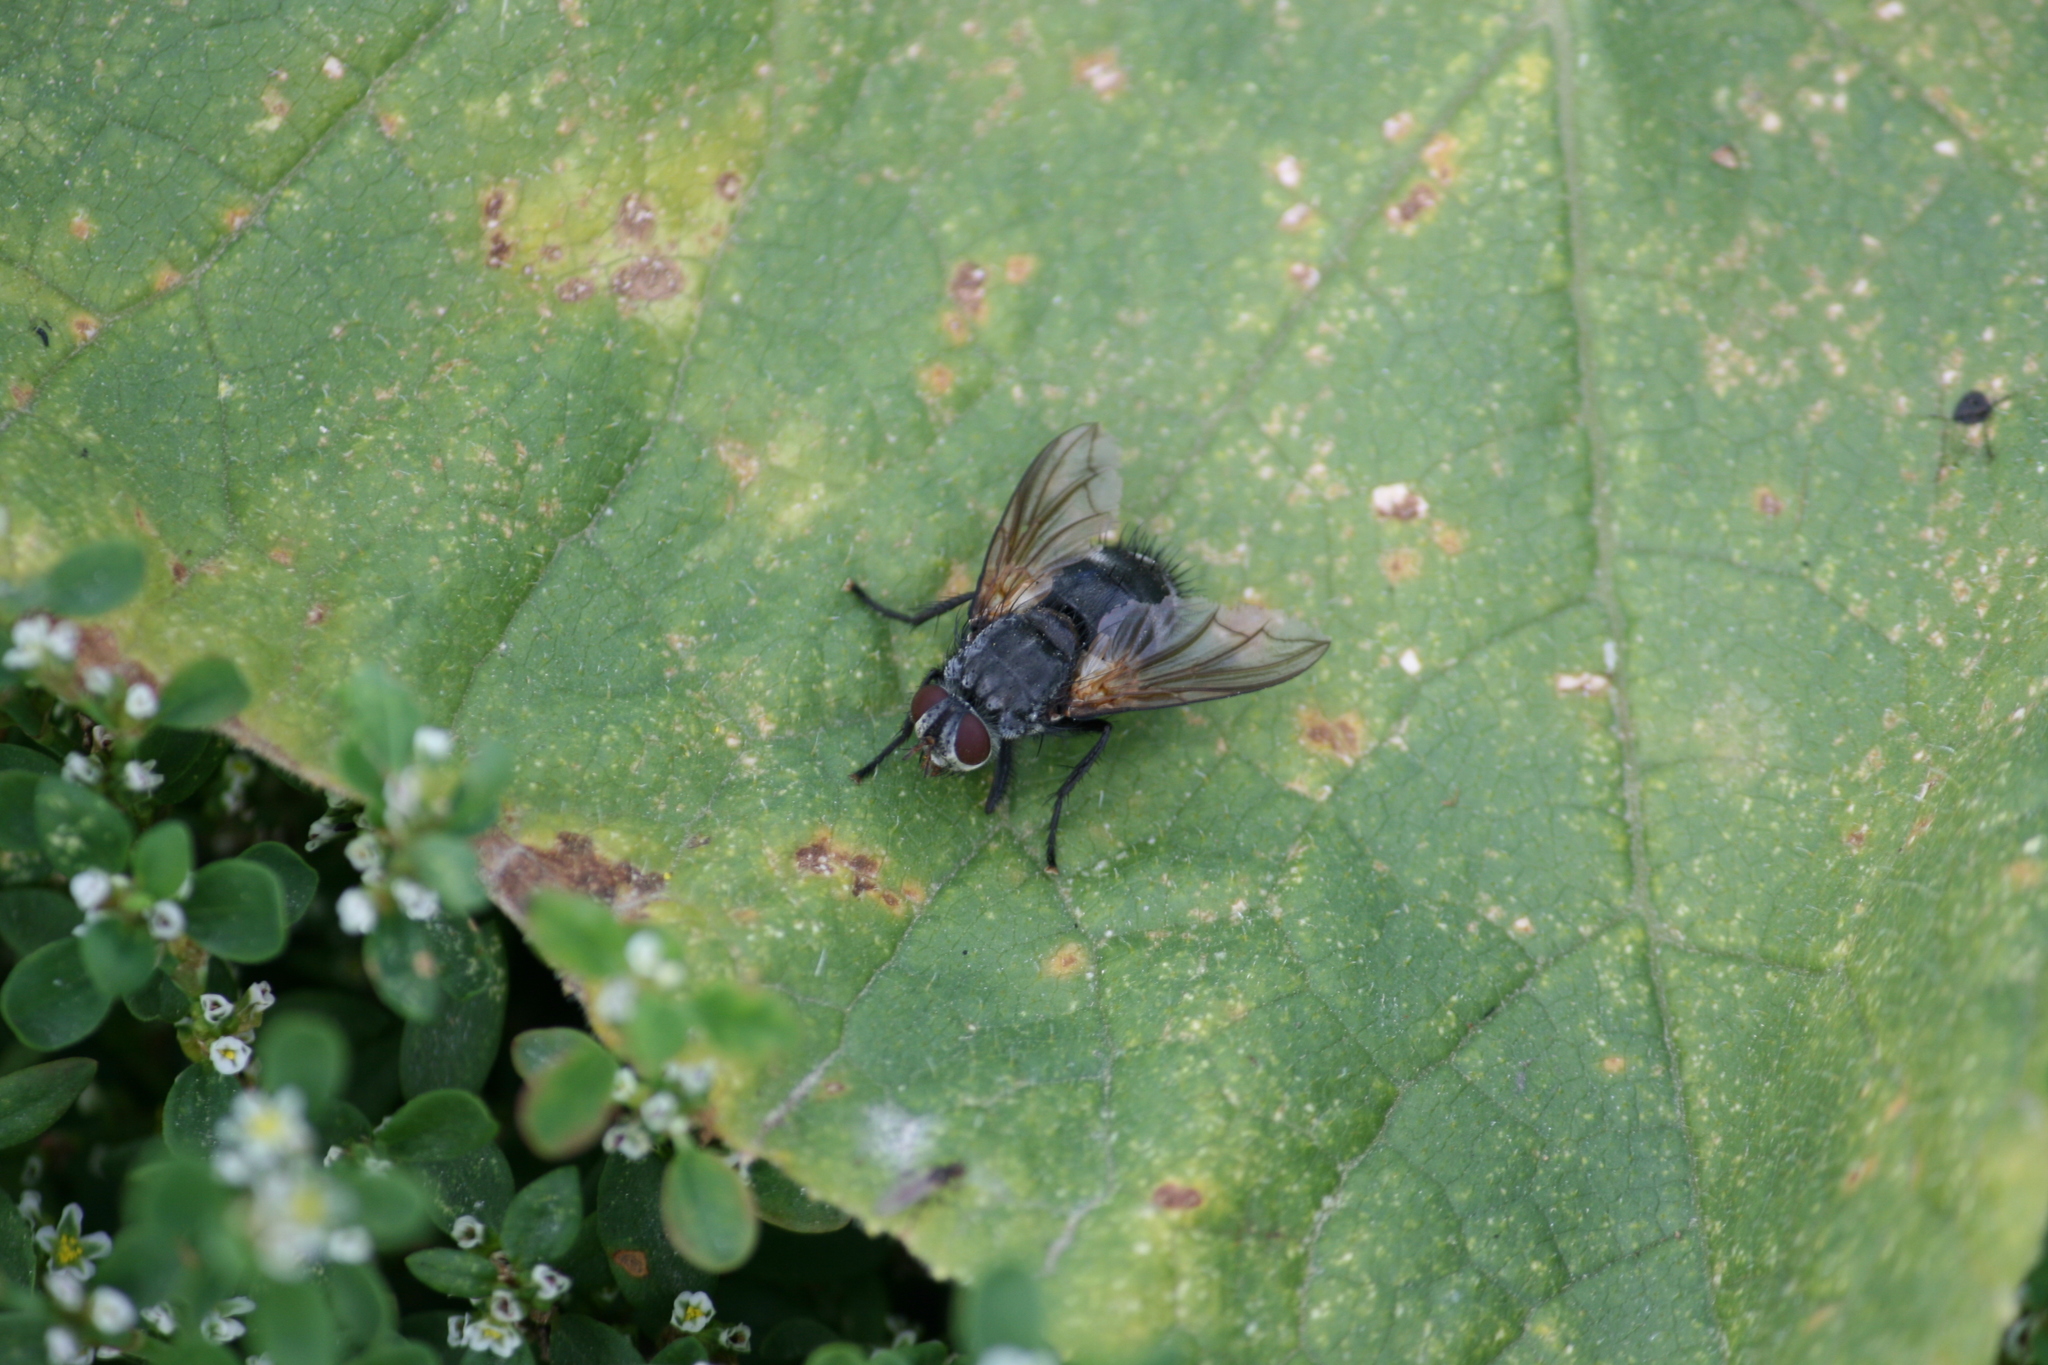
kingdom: Animalia
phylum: Arthropoda
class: Insecta
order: Diptera
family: Tachinidae
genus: Nemoraea
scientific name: Nemoraea pellucida
